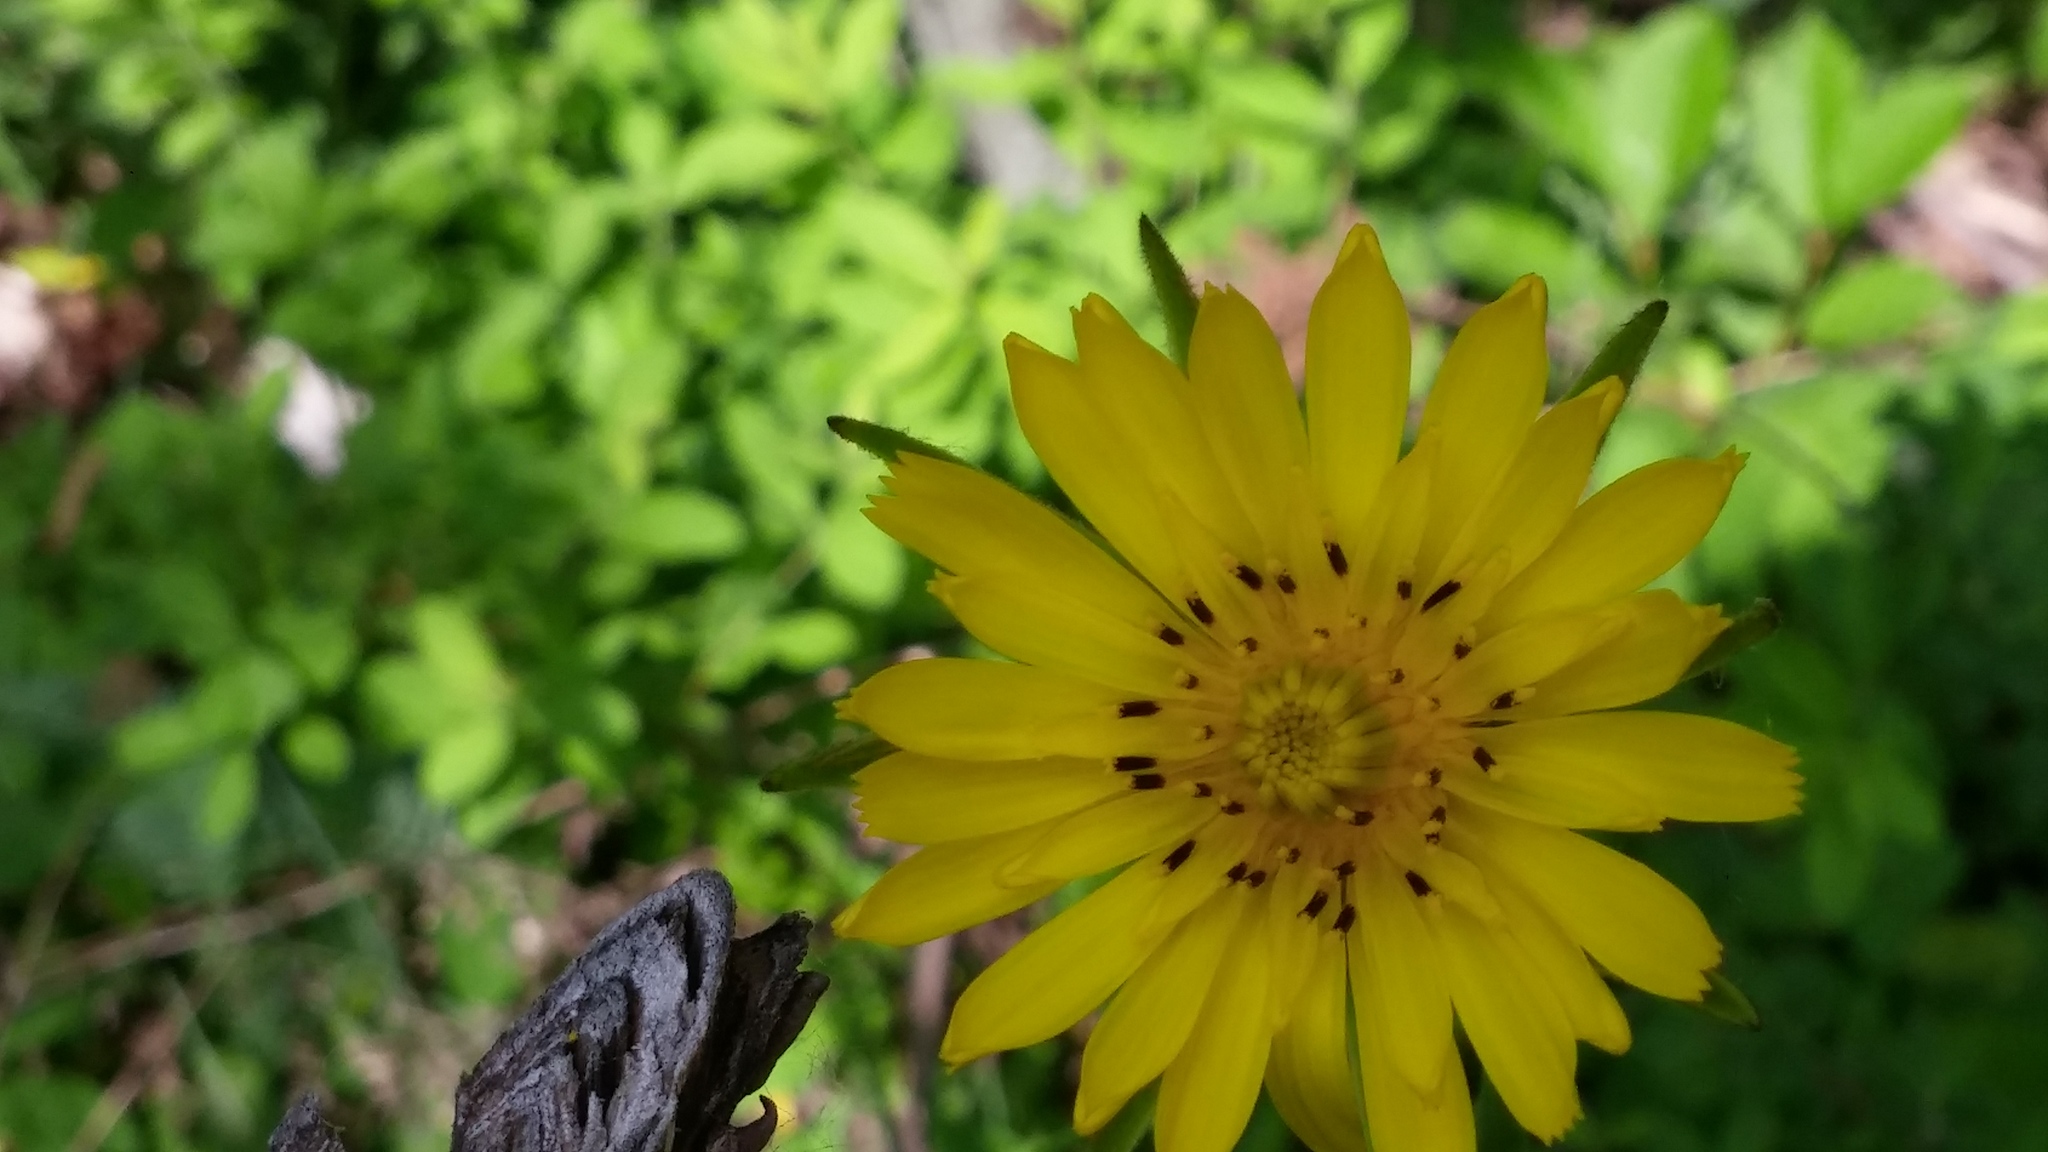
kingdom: Plantae
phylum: Tracheophyta
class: Magnoliopsida
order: Asterales
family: Asteraceae
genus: Tragopogon
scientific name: Tragopogon pratensis
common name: Goat's-beard
